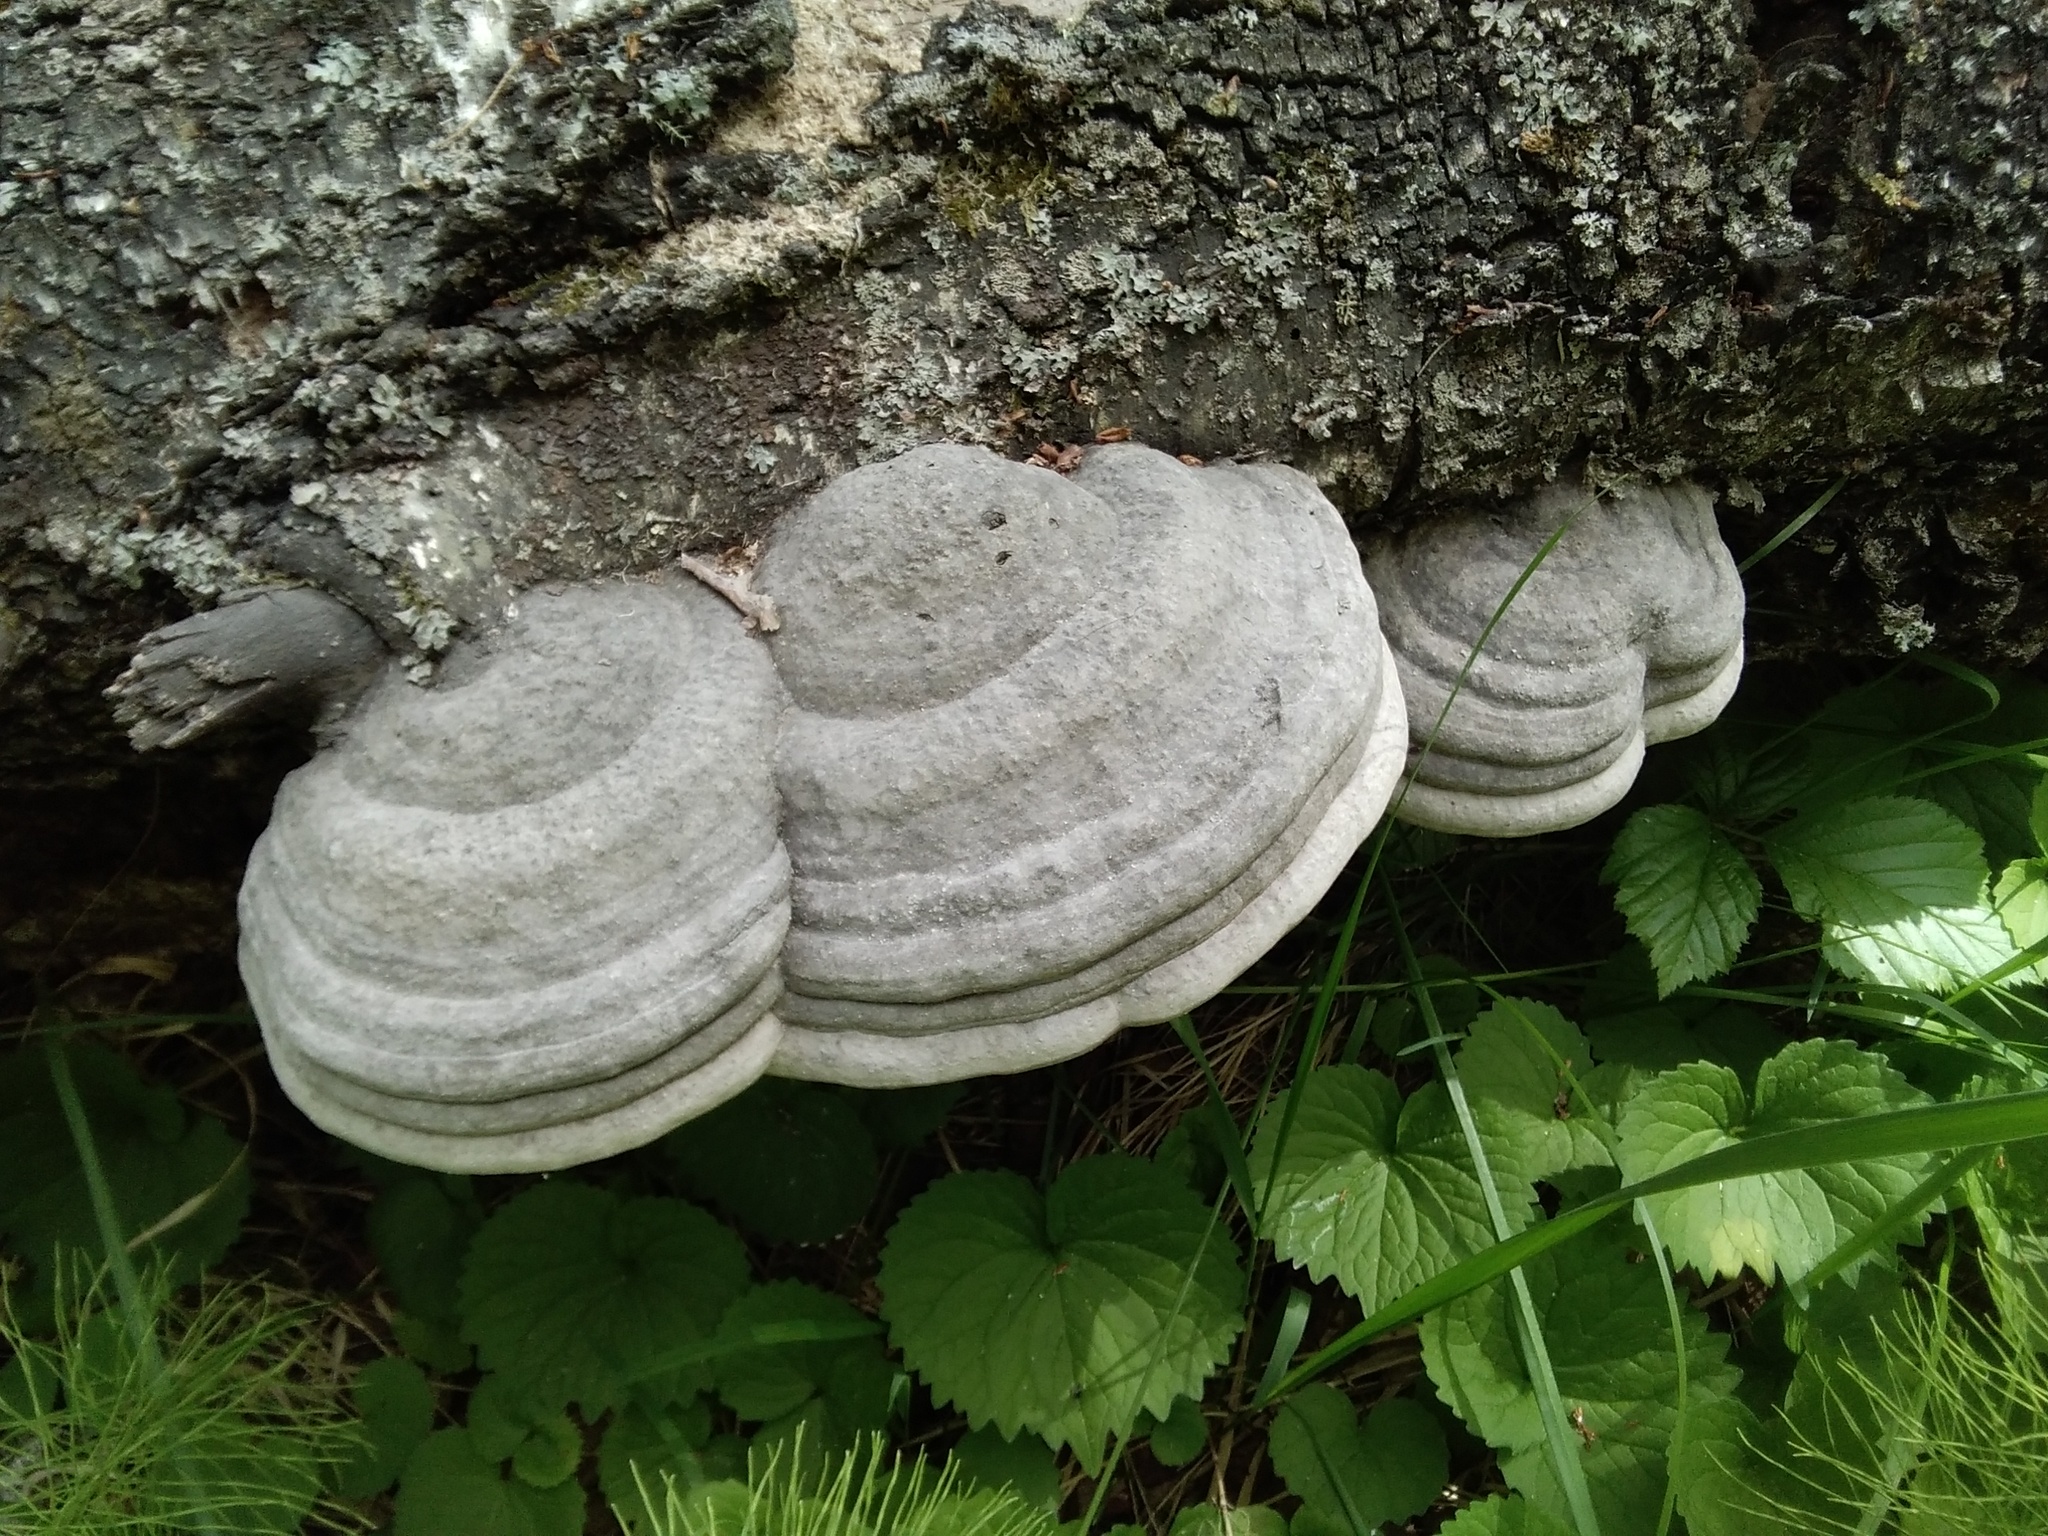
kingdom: Fungi
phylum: Basidiomycota
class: Agaricomycetes
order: Polyporales
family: Polyporaceae
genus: Fomes
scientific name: Fomes fomentarius
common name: Hoof fungus
